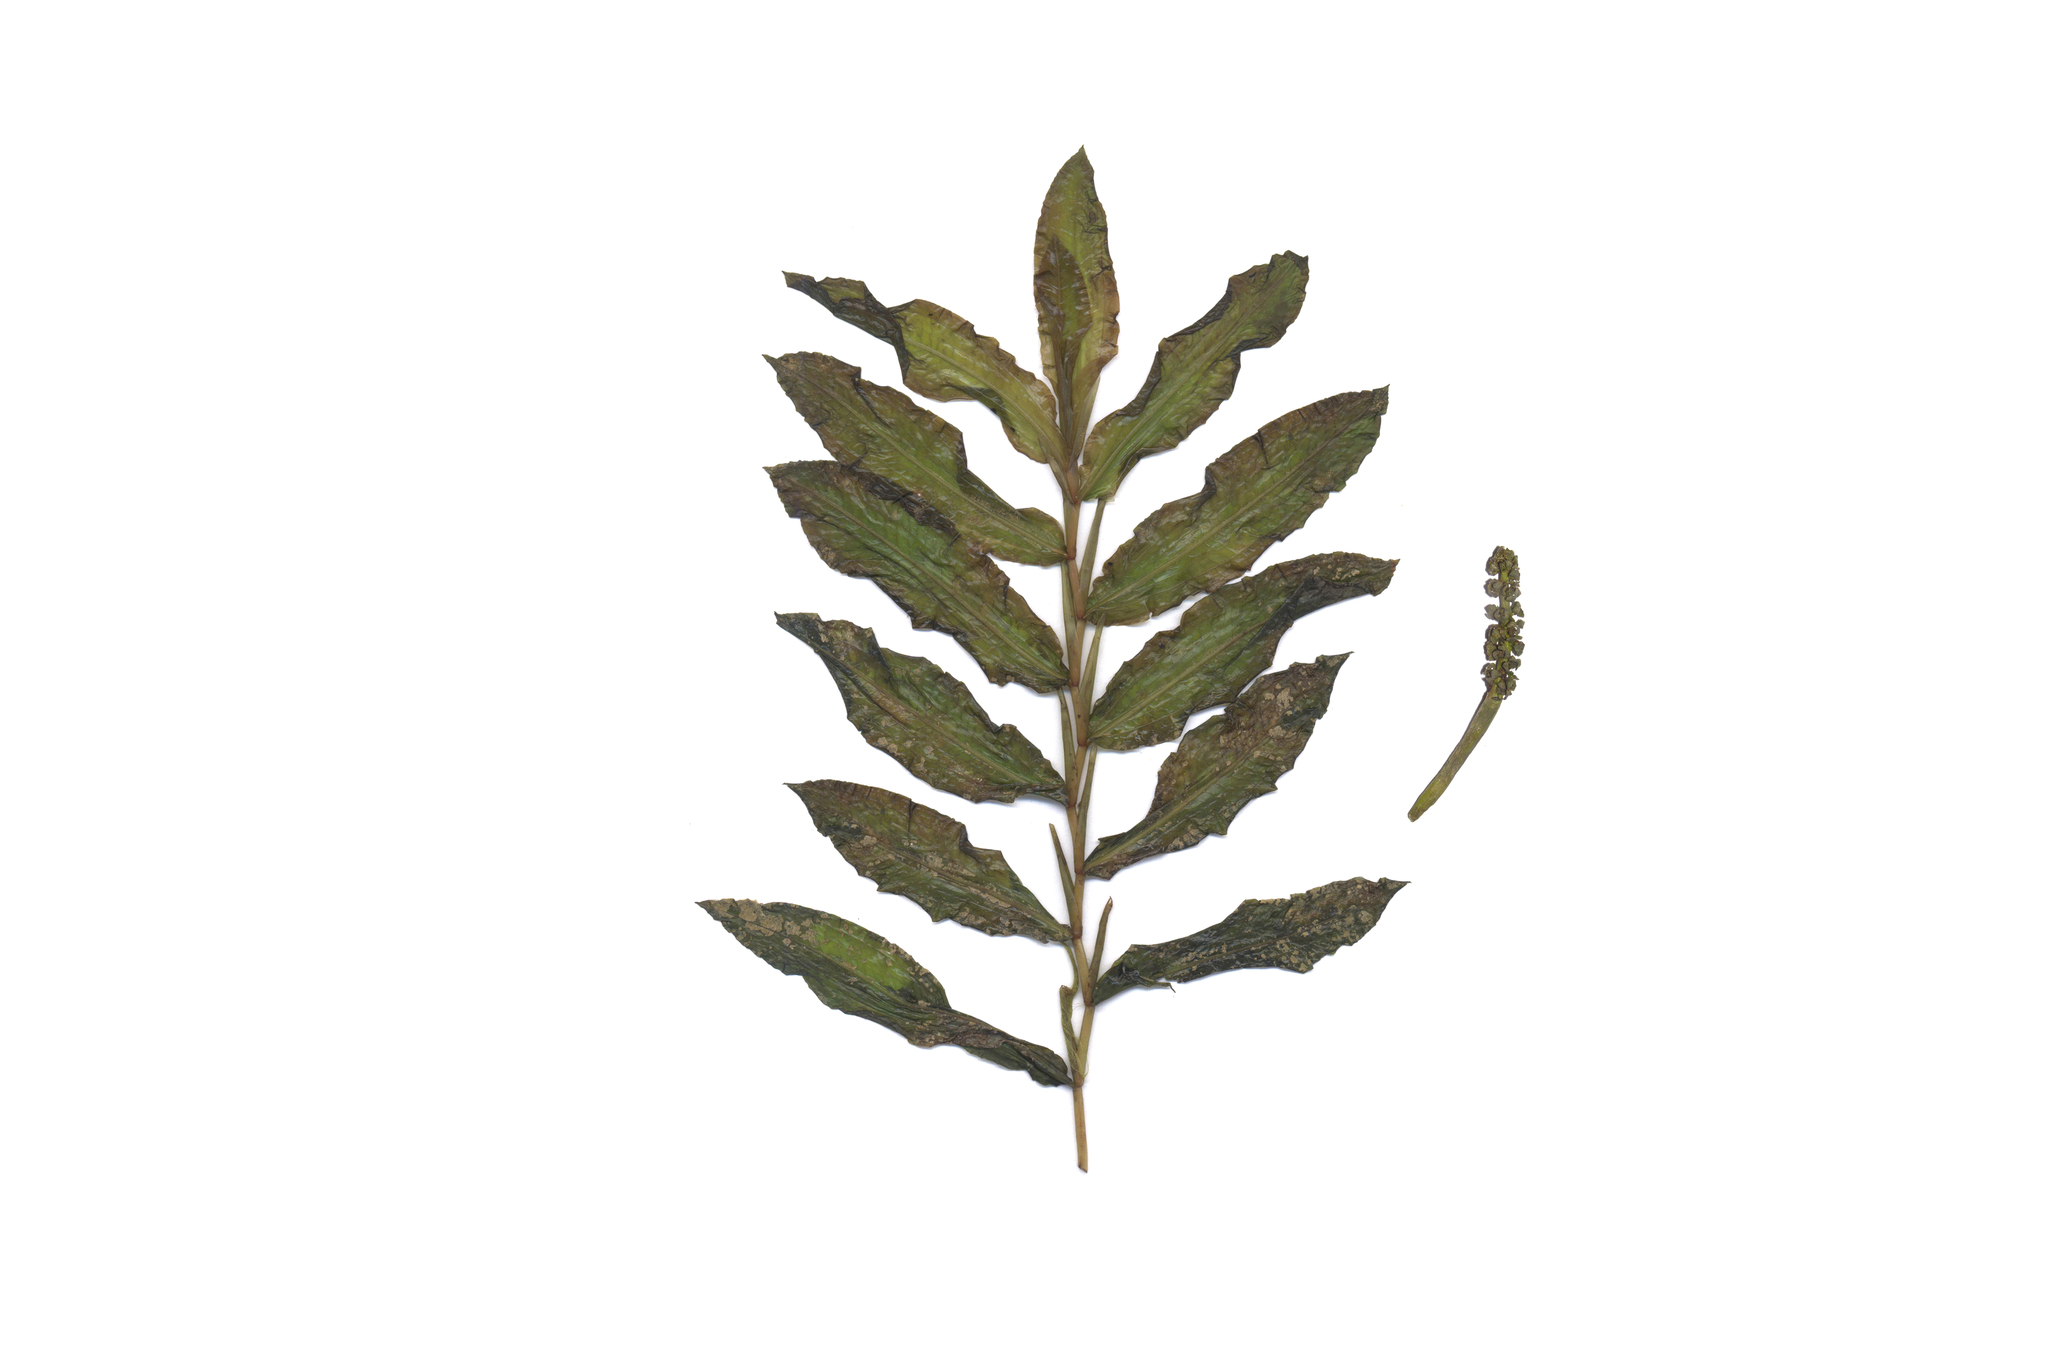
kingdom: Plantae
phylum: Tracheophyta
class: Liliopsida
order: Alismatales
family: Potamogetonaceae
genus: Potamogeton
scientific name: Potamogeton lucens
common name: Shining pondweed
